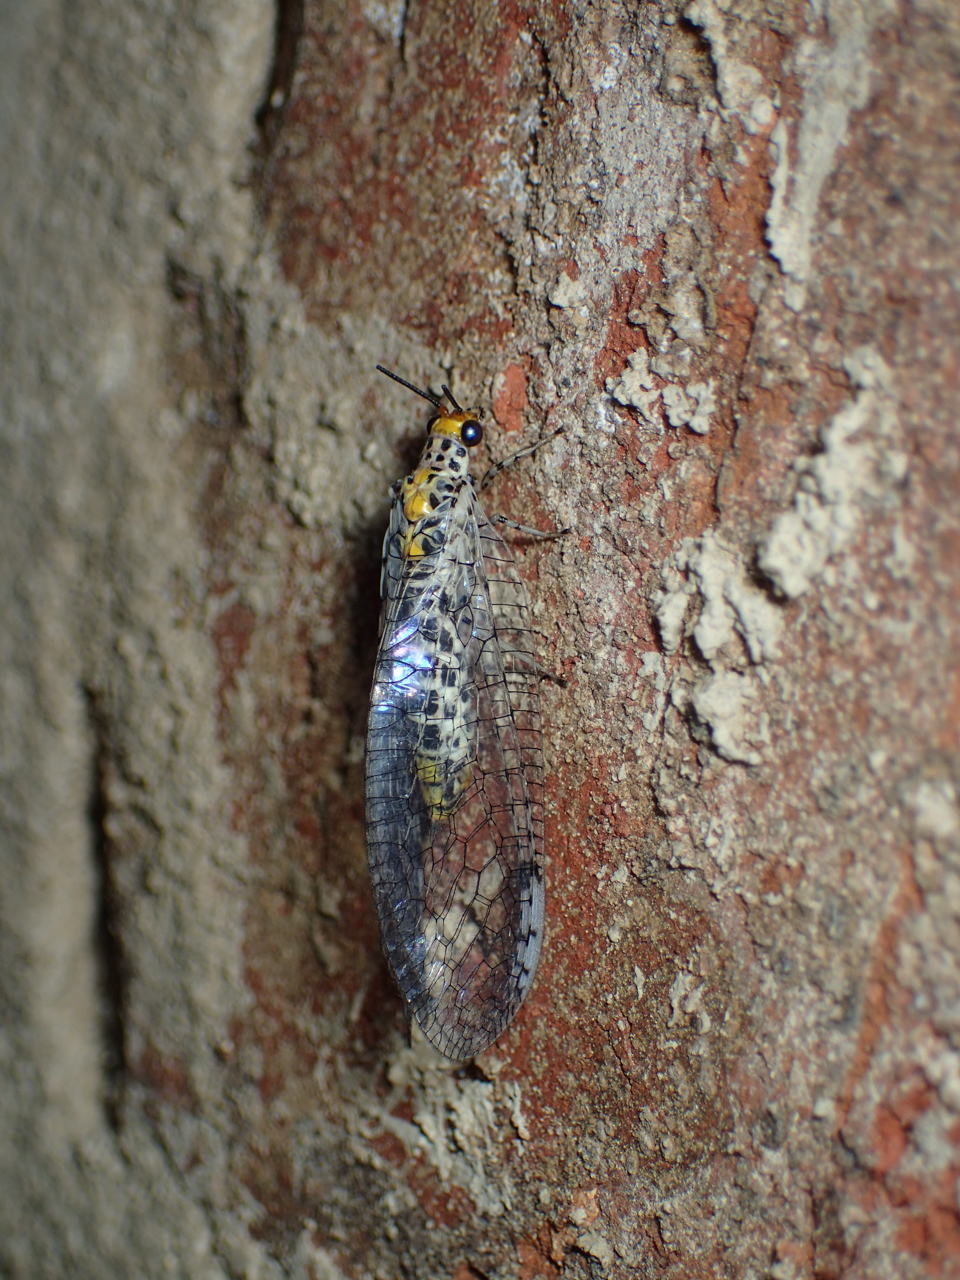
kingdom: Animalia
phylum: Arthropoda
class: Insecta
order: Neuroptera
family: Chrysopidae
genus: Abachrysa
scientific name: Abachrysa eureka
